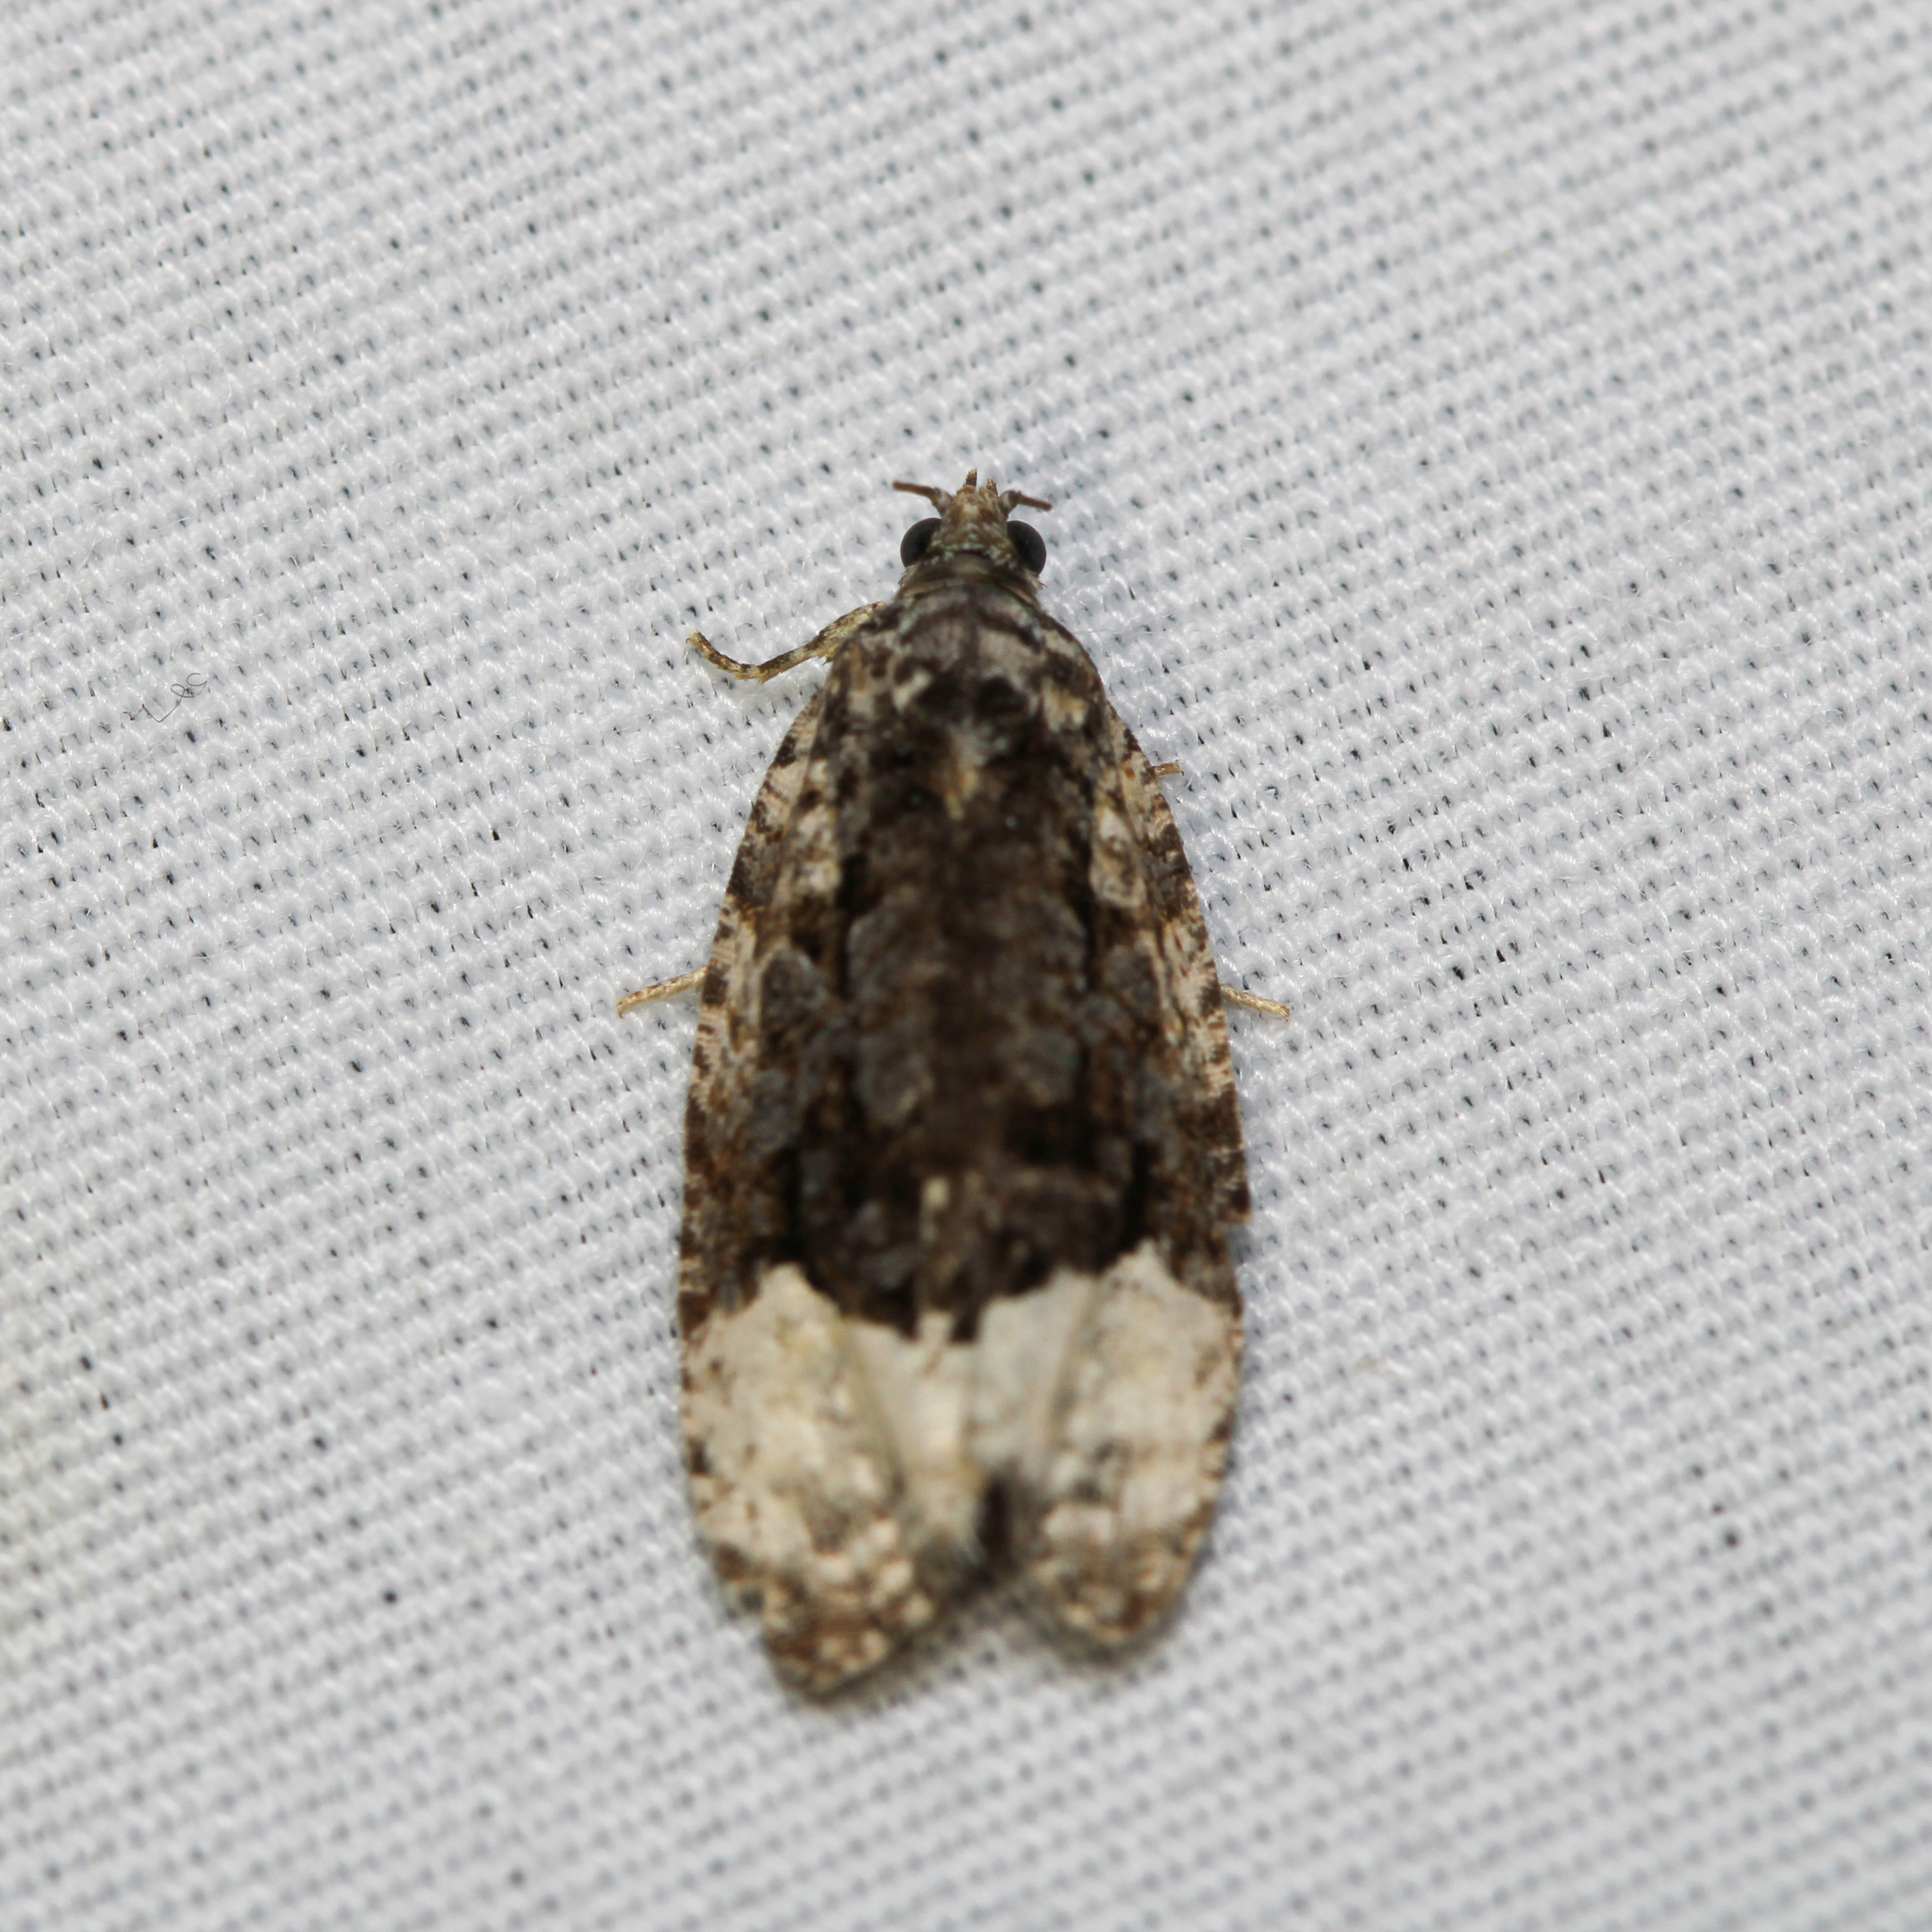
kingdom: Animalia
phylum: Arthropoda
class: Insecta
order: Lepidoptera
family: Tortricidae
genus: Apotomis
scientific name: Apotomis capreana
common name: Sallow marble
